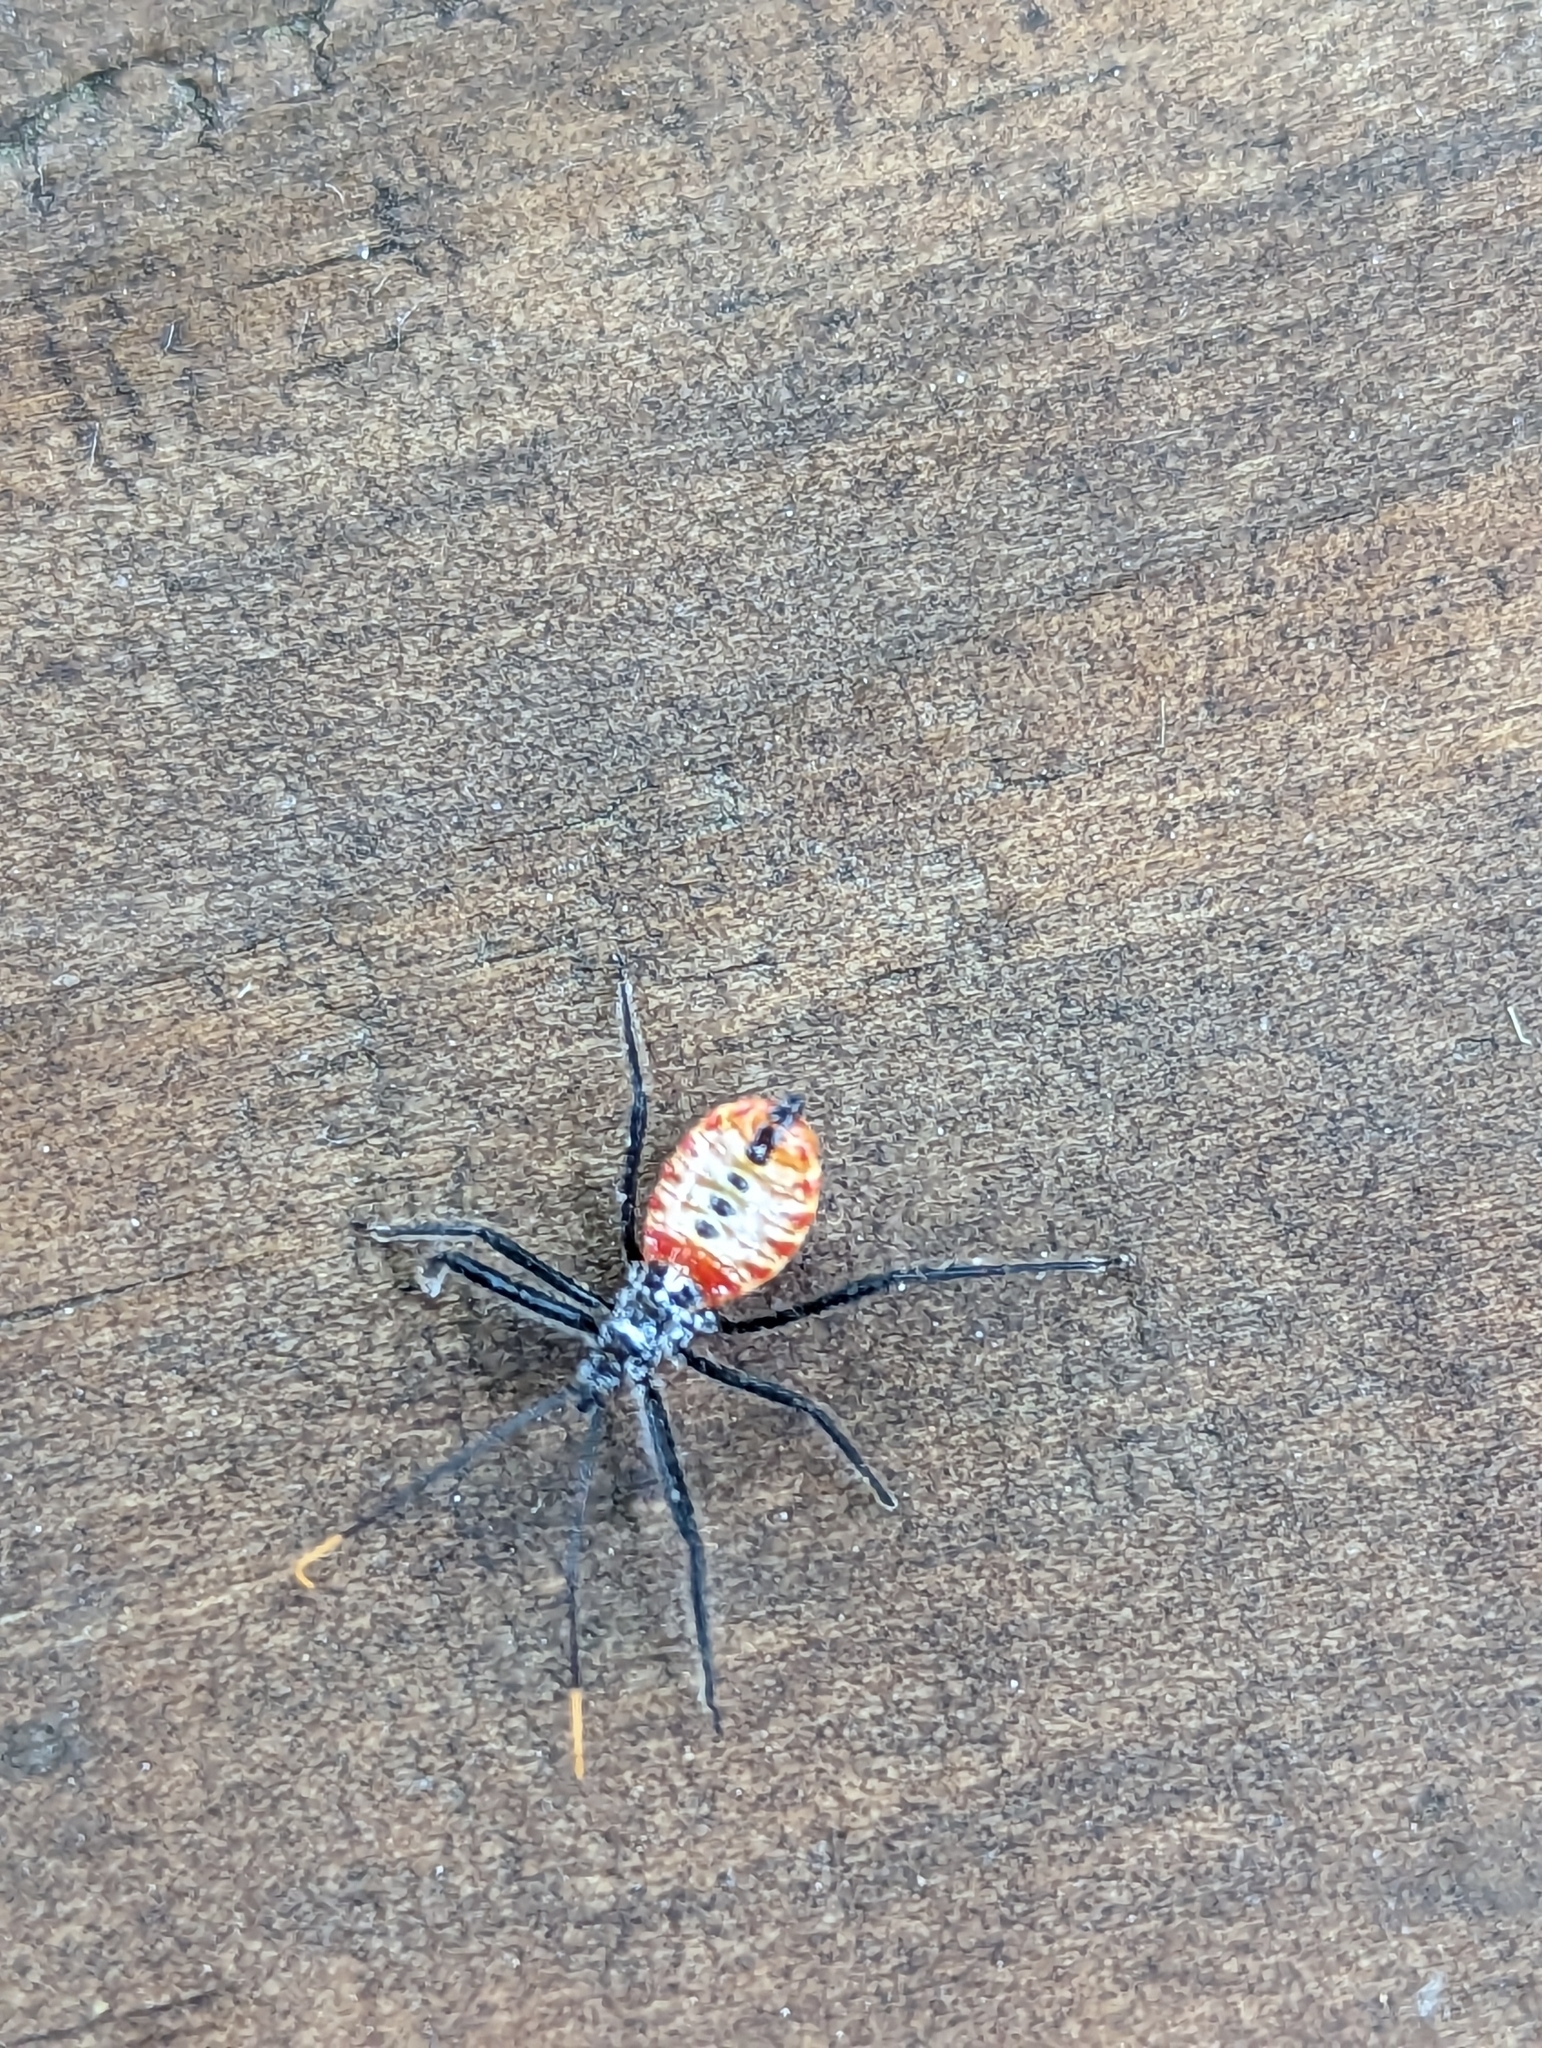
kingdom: Animalia
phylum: Arthropoda
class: Insecta
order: Hemiptera
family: Reduviidae
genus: Arilus
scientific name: Arilus cristatus
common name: North american wheel bug
